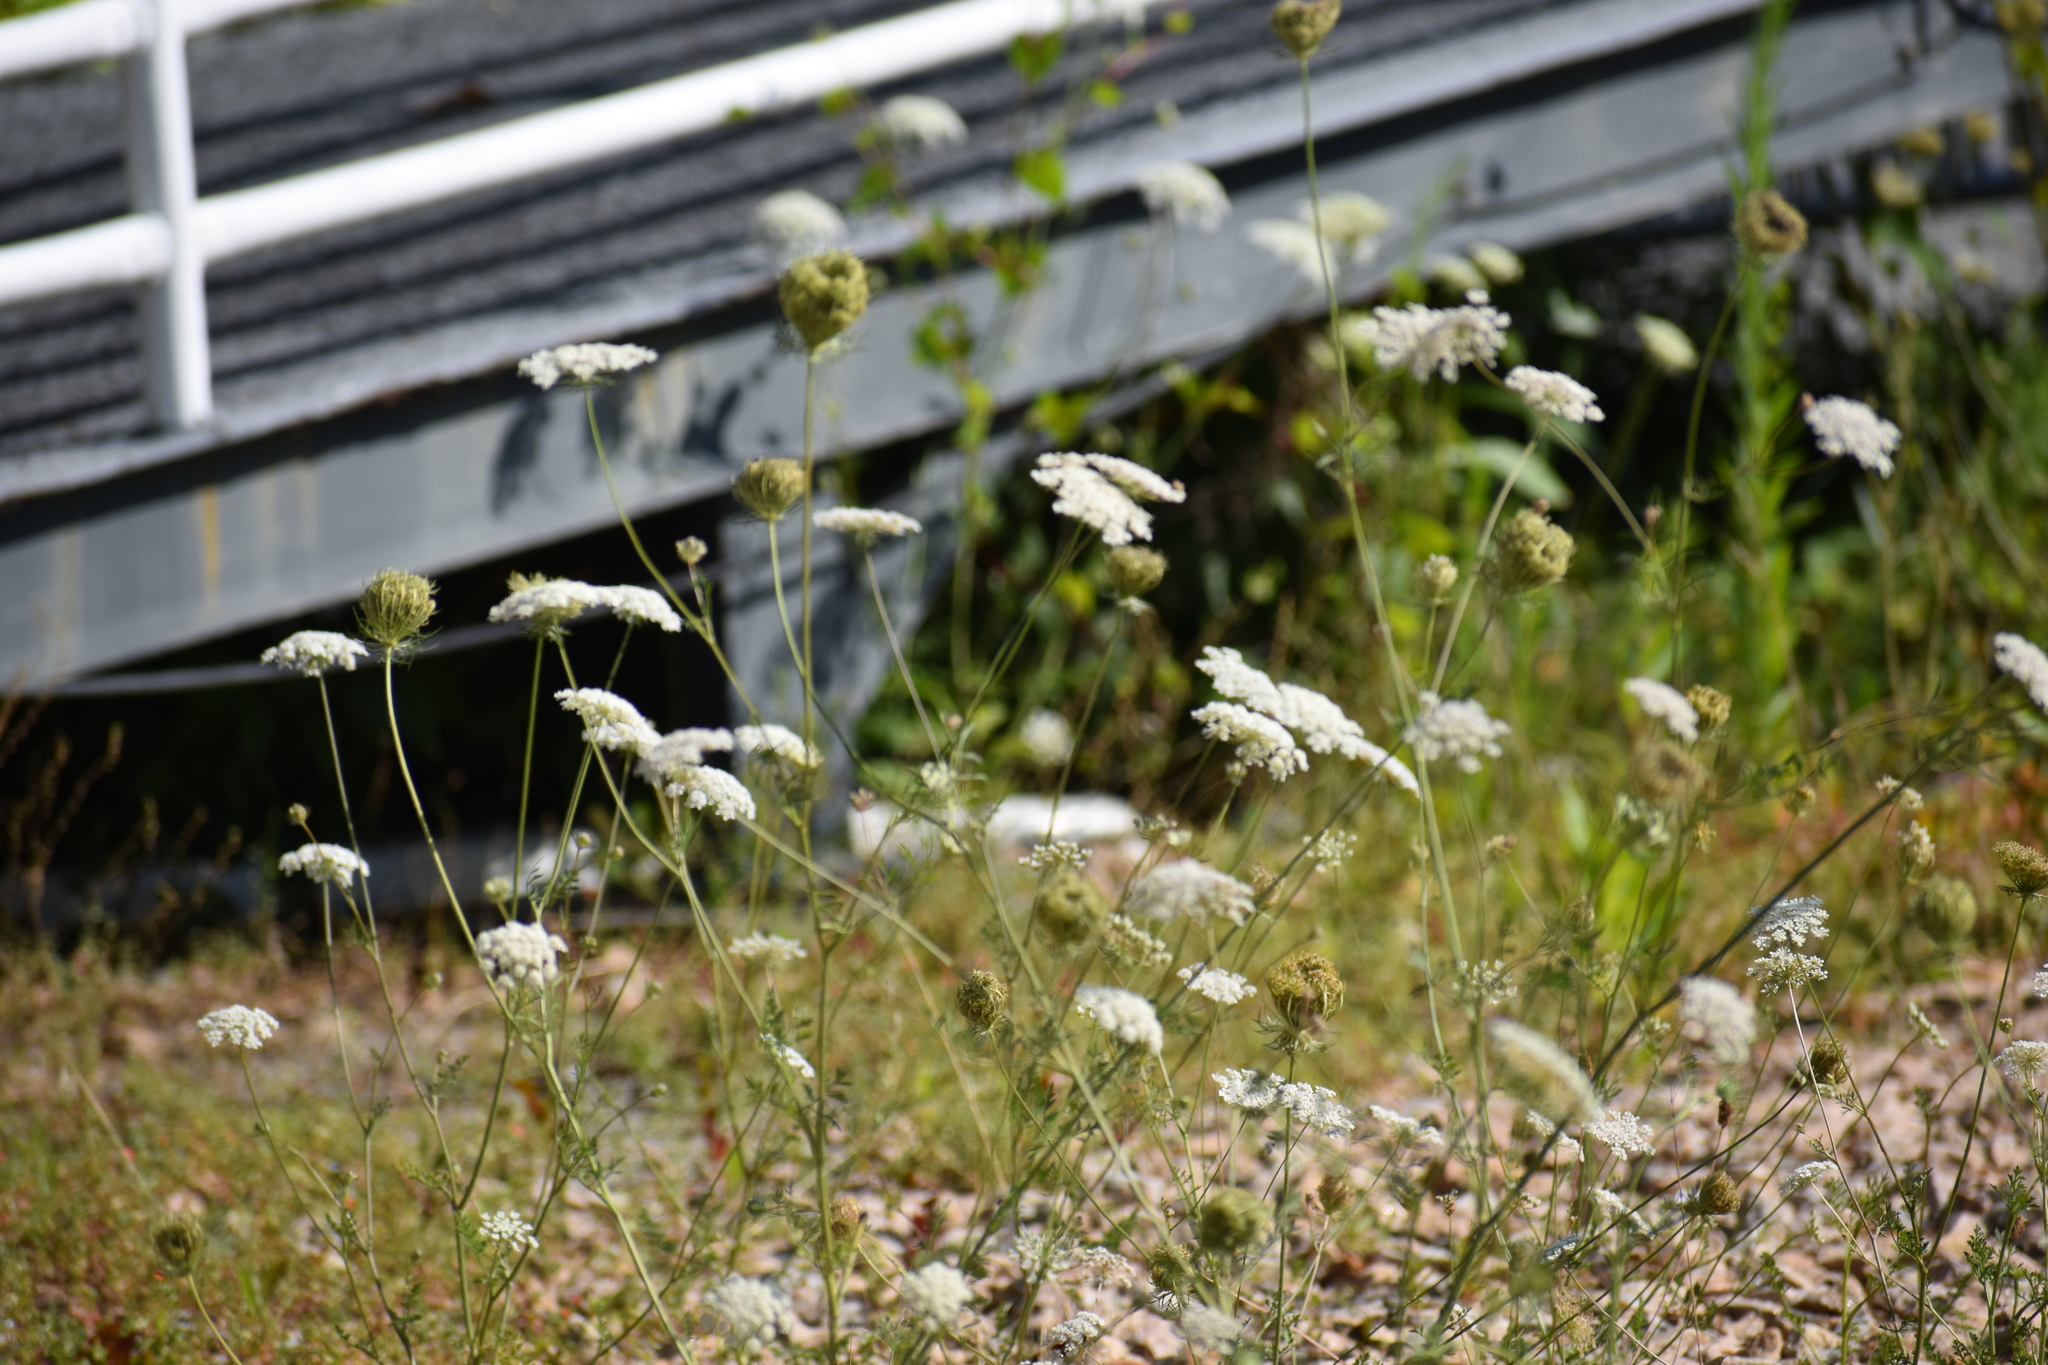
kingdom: Plantae
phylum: Tracheophyta
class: Magnoliopsida
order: Apiales
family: Apiaceae
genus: Daucus
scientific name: Daucus carota
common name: Wild carrot
